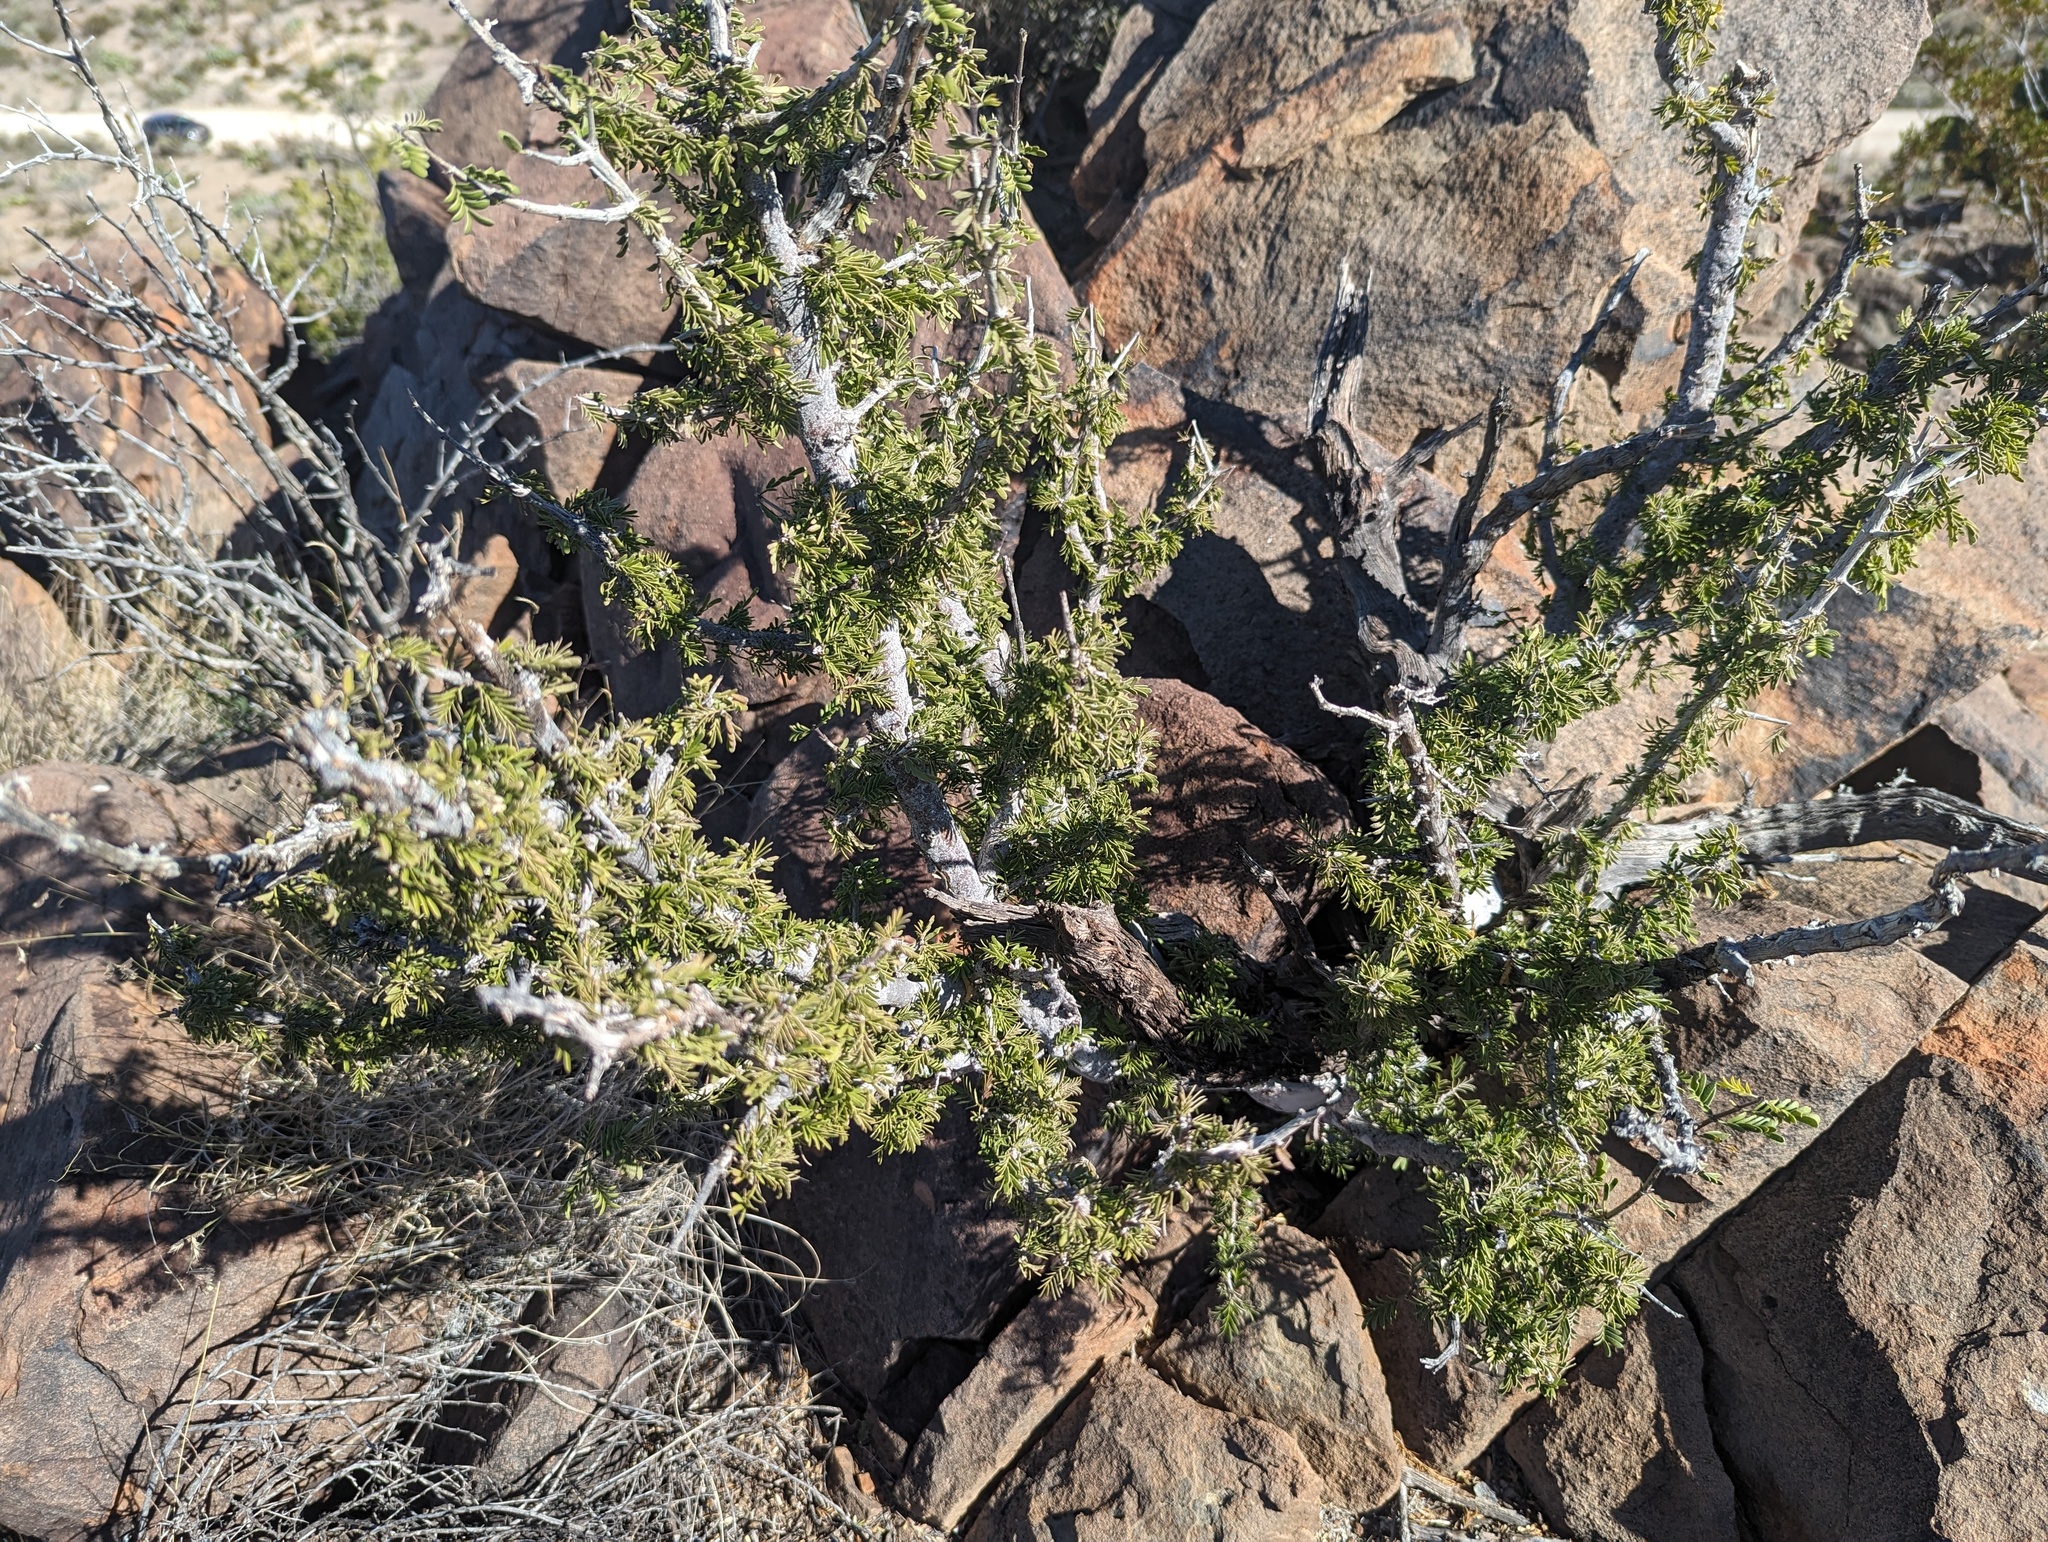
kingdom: Plantae
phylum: Tracheophyta
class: Magnoliopsida
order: Zygophyllales
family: Zygophyllaceae
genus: Porlieria
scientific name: Porlieria angustifolia
